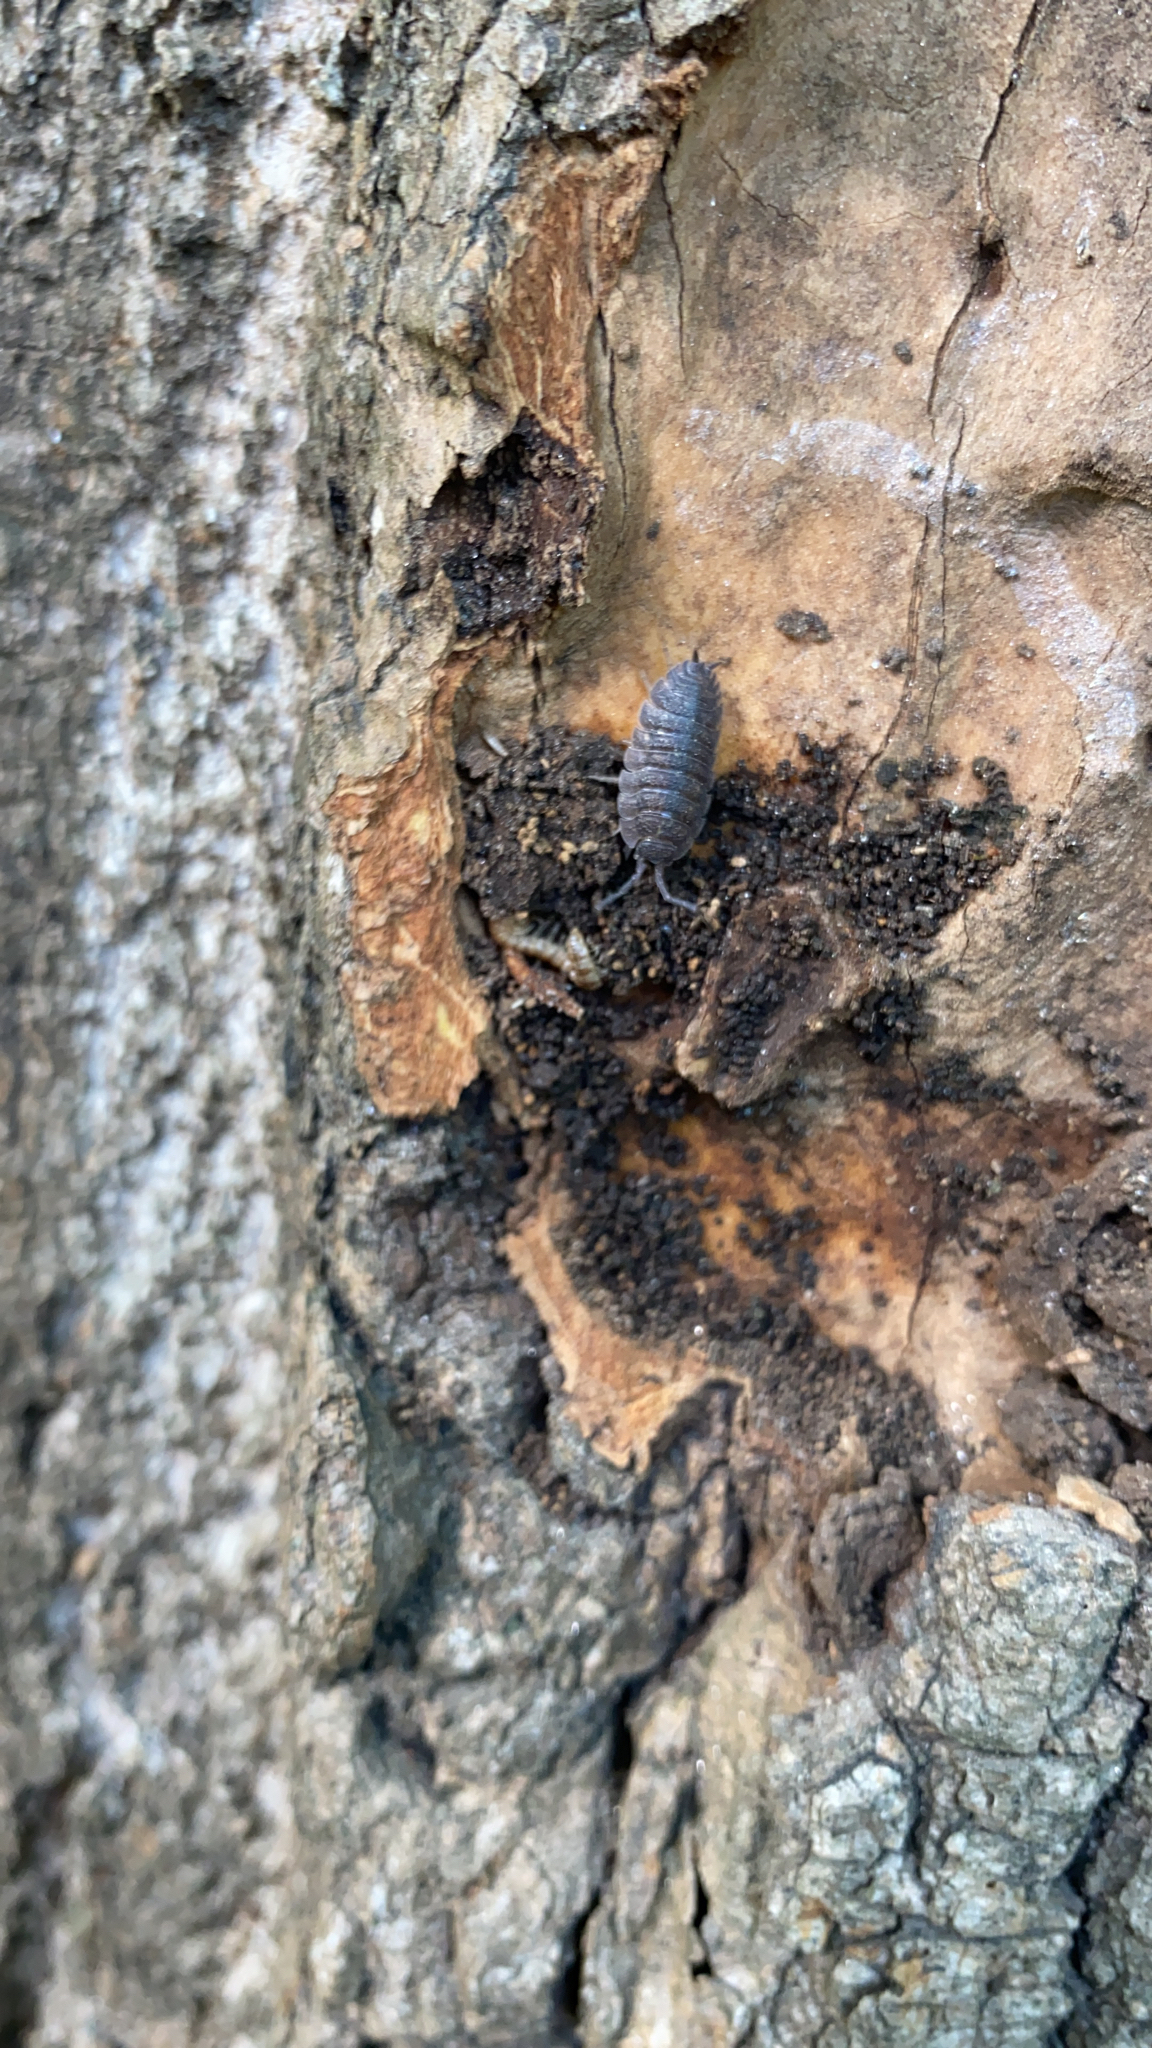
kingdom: Animalia
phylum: Arthropoda
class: Malacostraca
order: Isopoda
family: Porcellionidae
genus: Porcellio
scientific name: Porcellio scaber
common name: Common rough woodlouse
